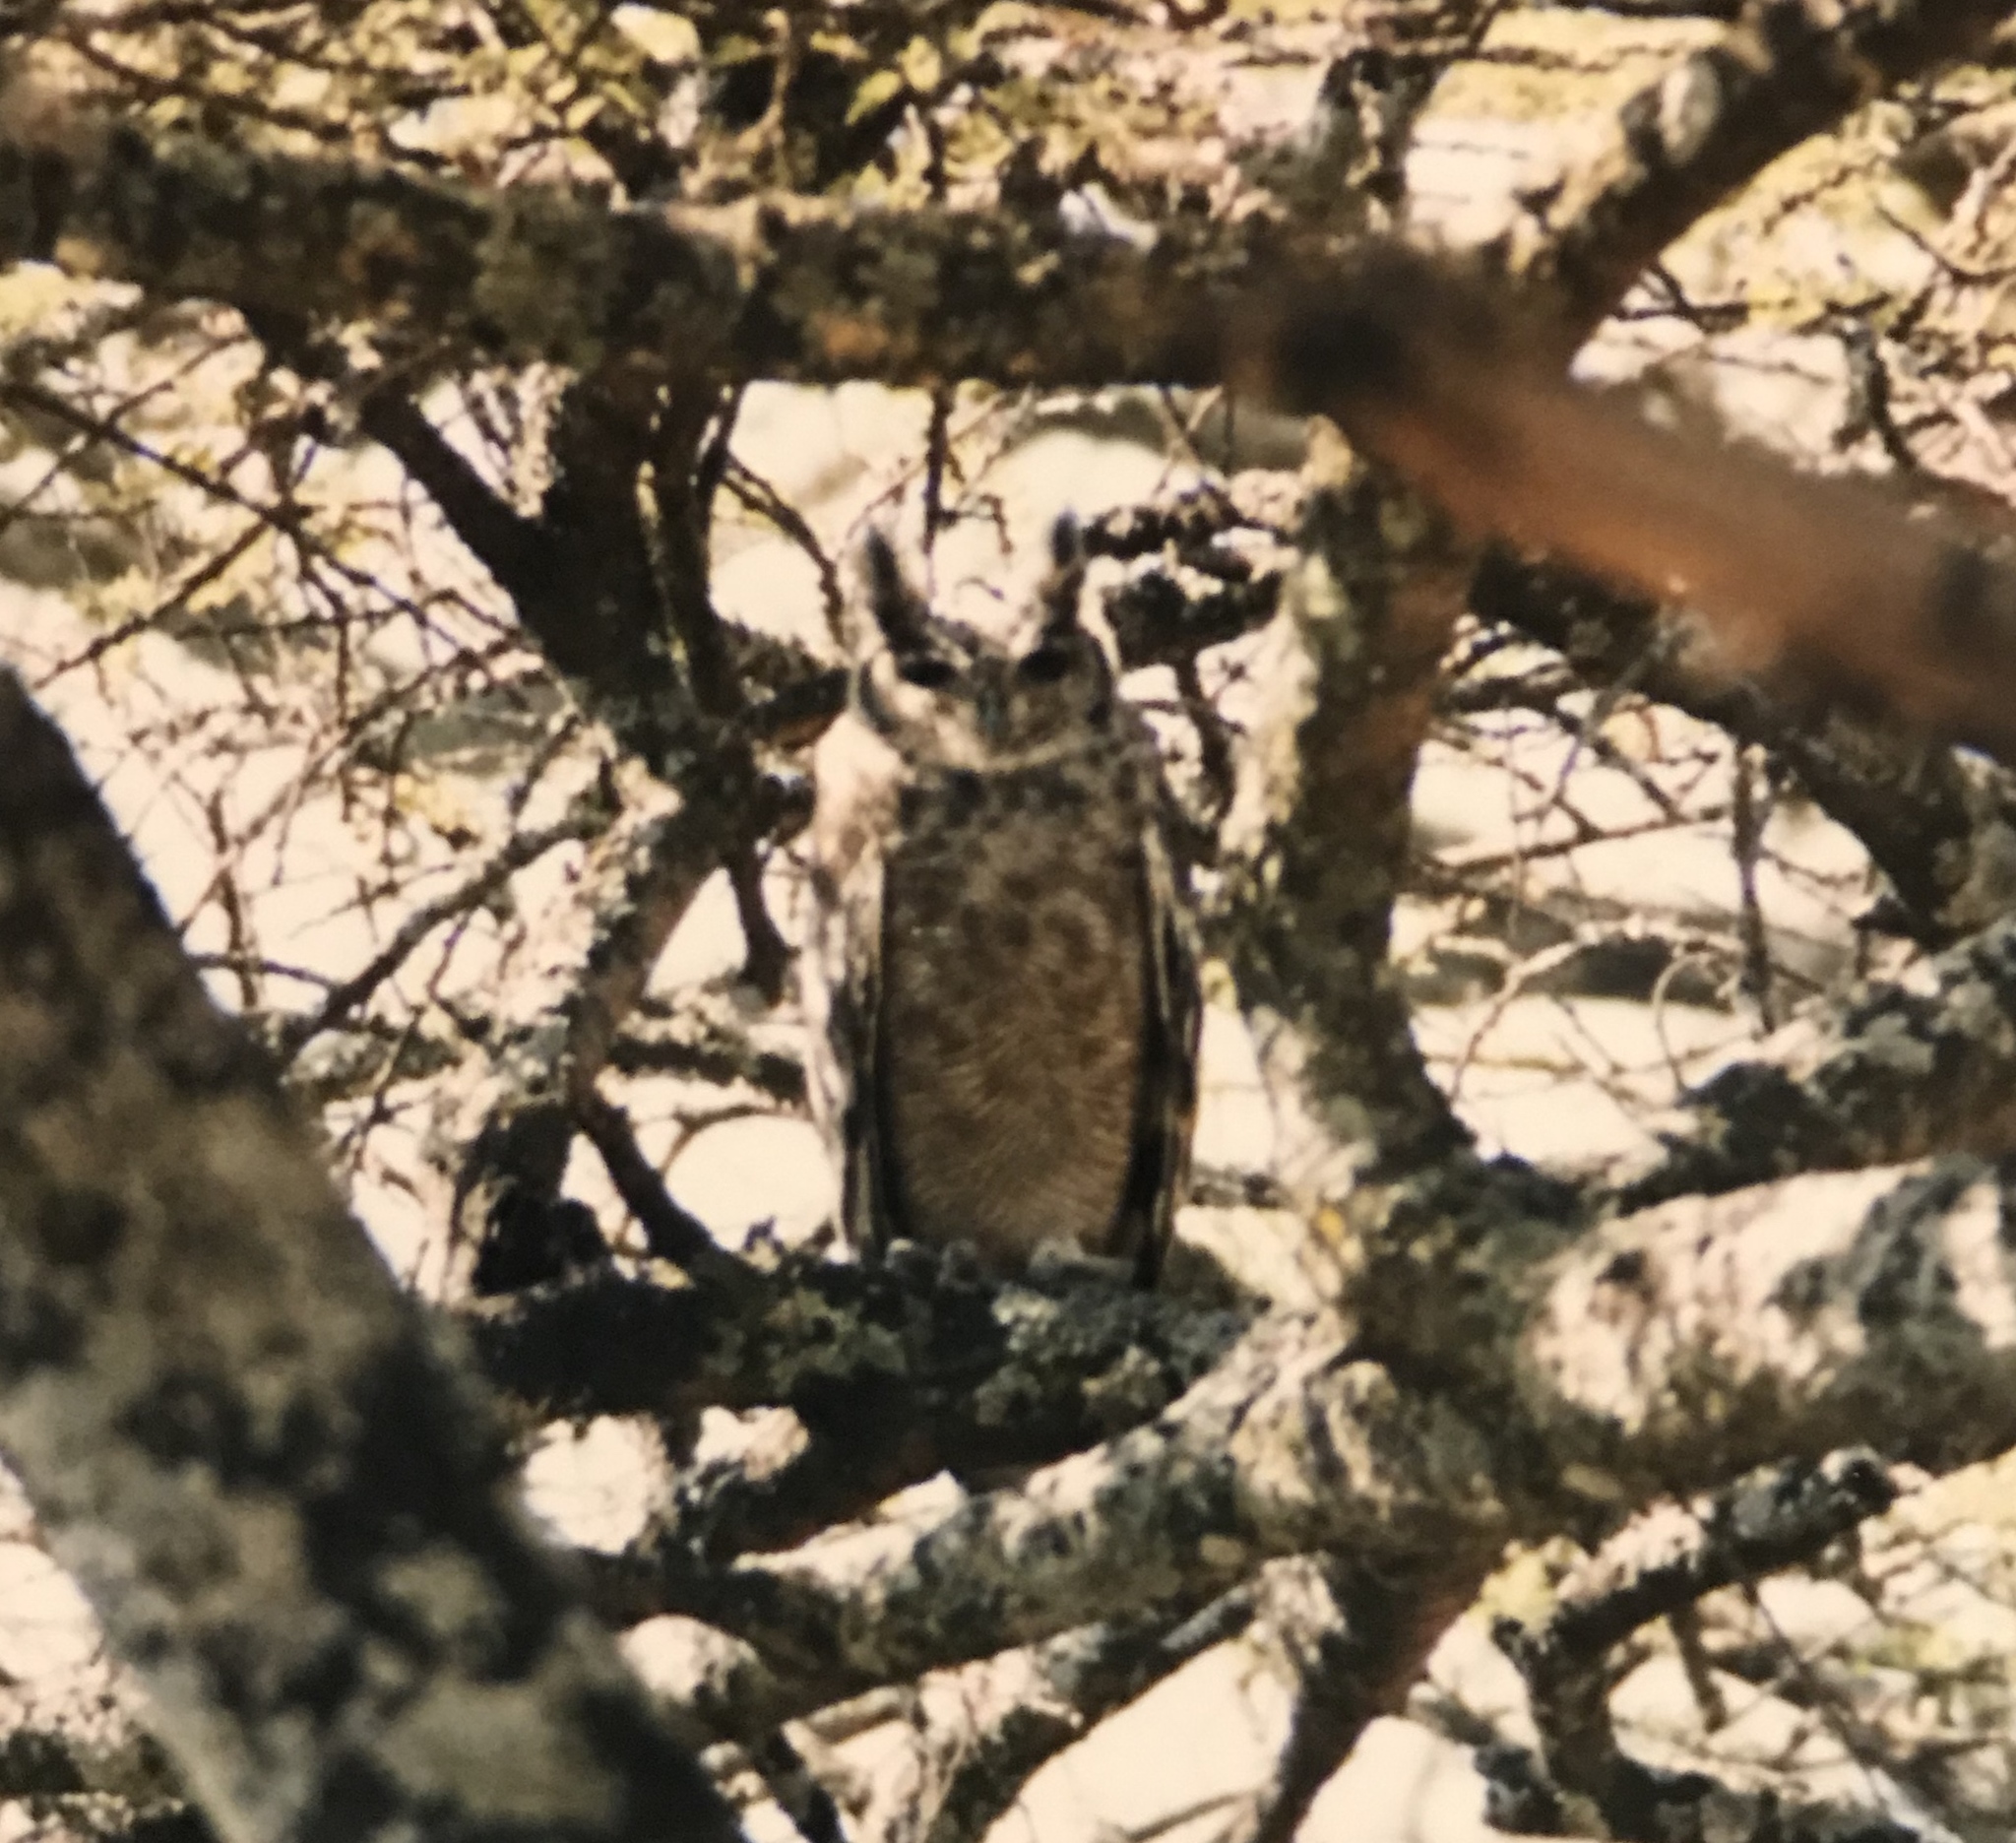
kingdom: Animalia
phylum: Chordata
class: Aves
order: Strigiformes
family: Strigidae
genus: Bubo
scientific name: Bubo cinerascens
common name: Greyish eagle-owl
